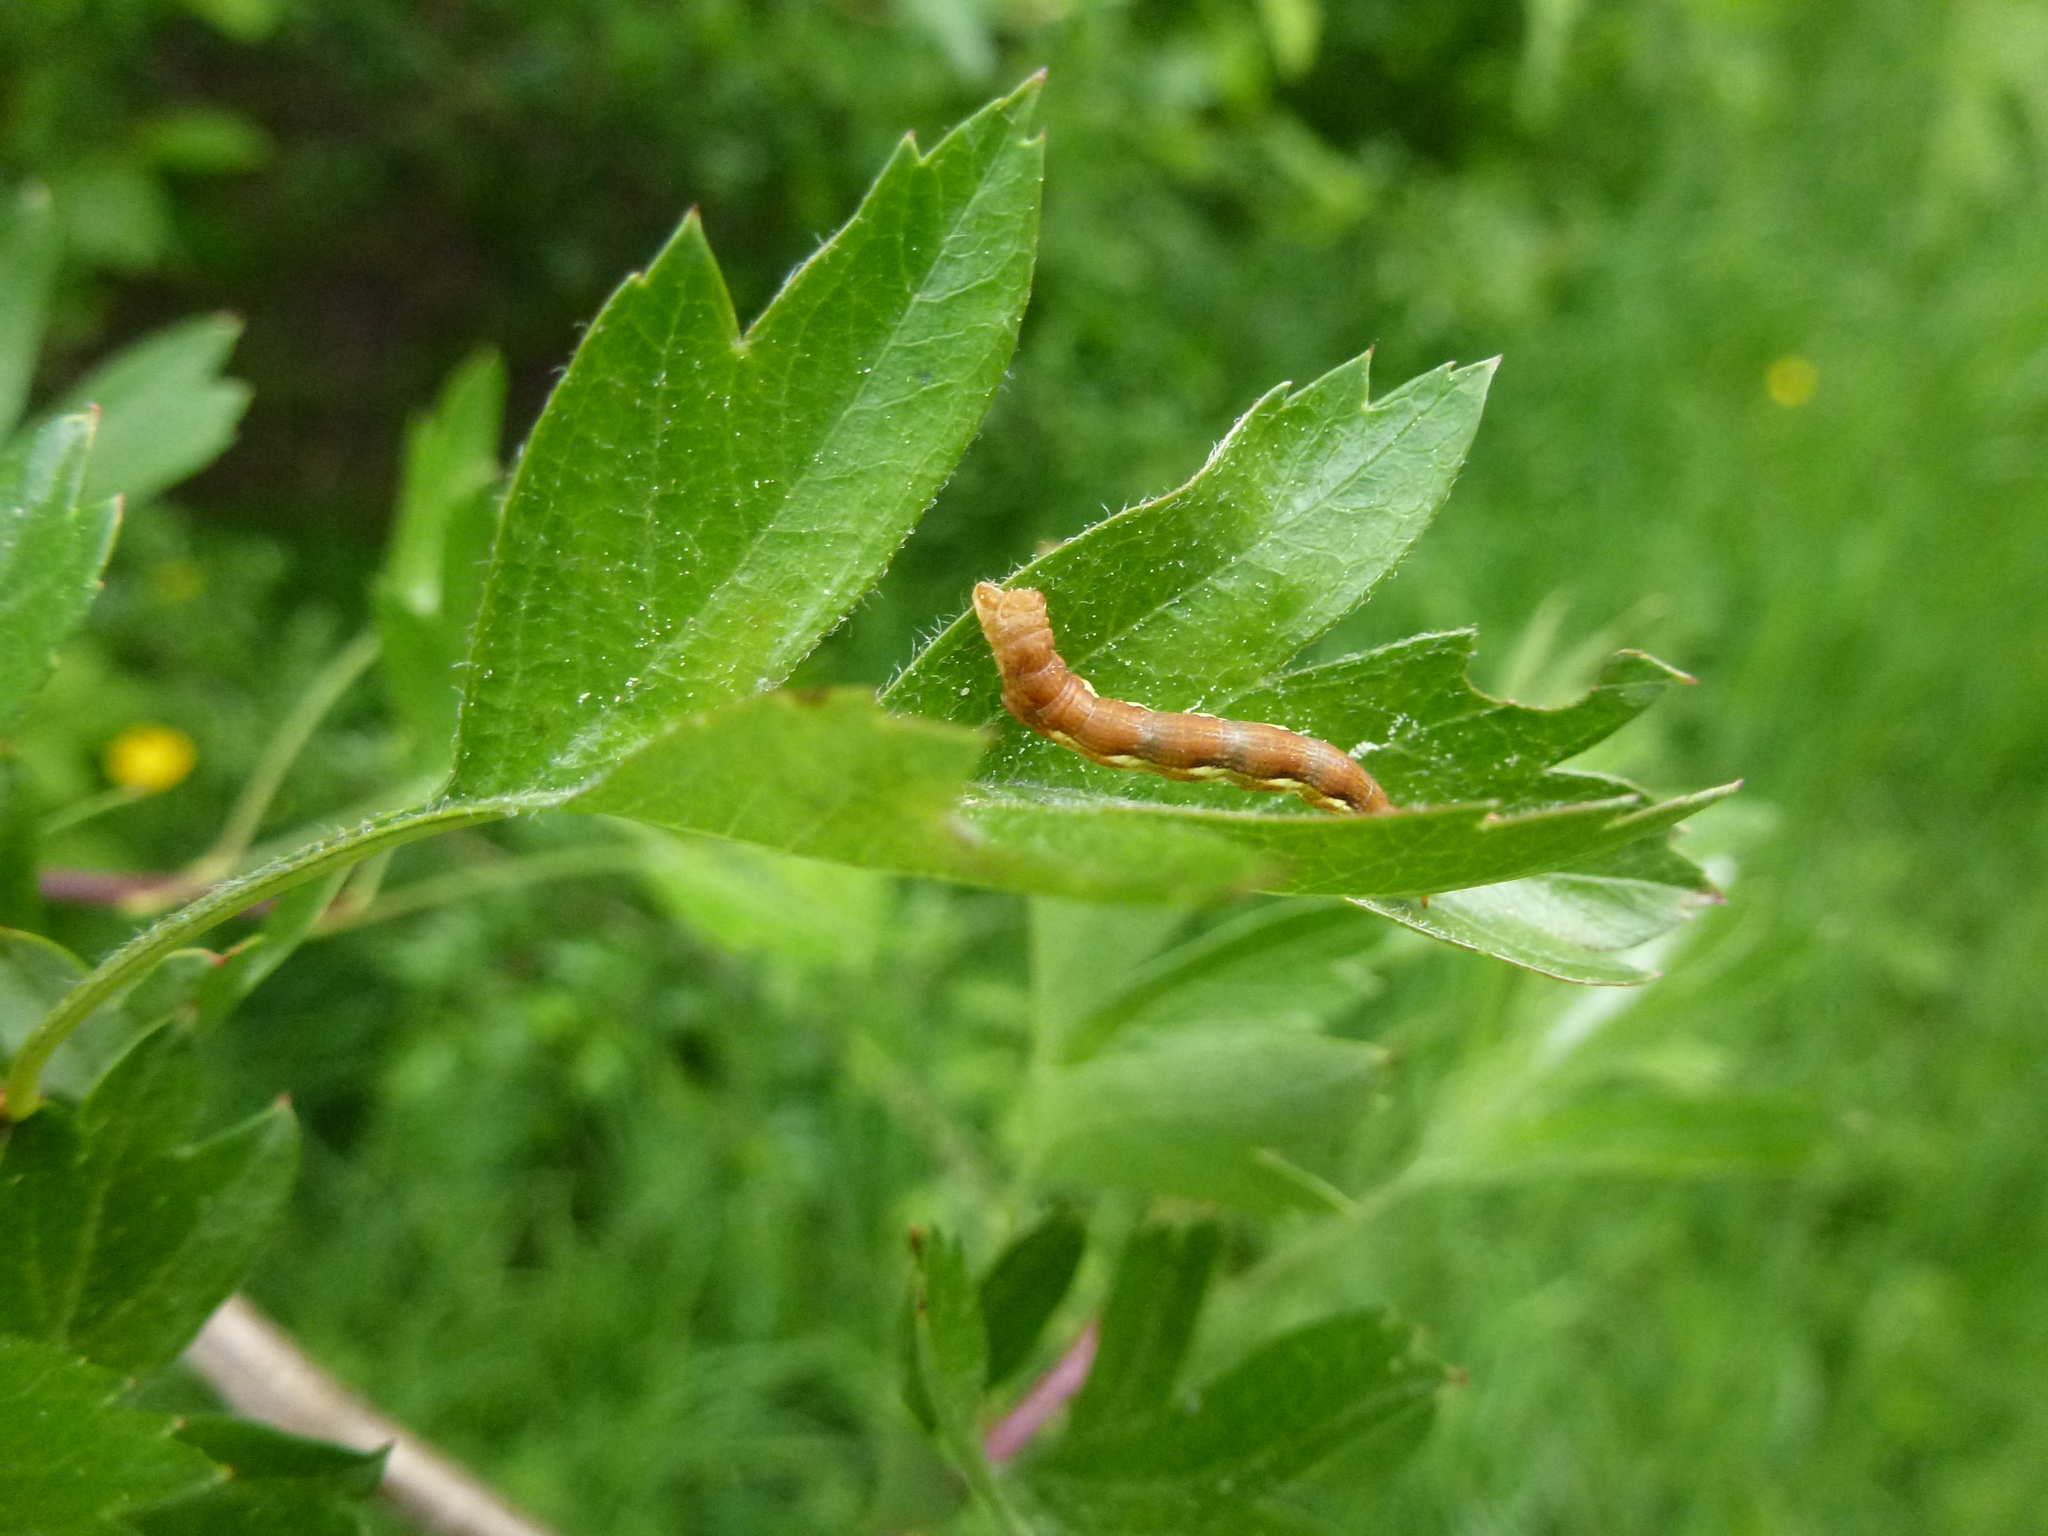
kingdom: Animalia
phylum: Arthropoda
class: Insecta
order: Lepidoptera
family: Geometridae
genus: Erannis
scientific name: Erannis defoliaria
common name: Mottled umber
